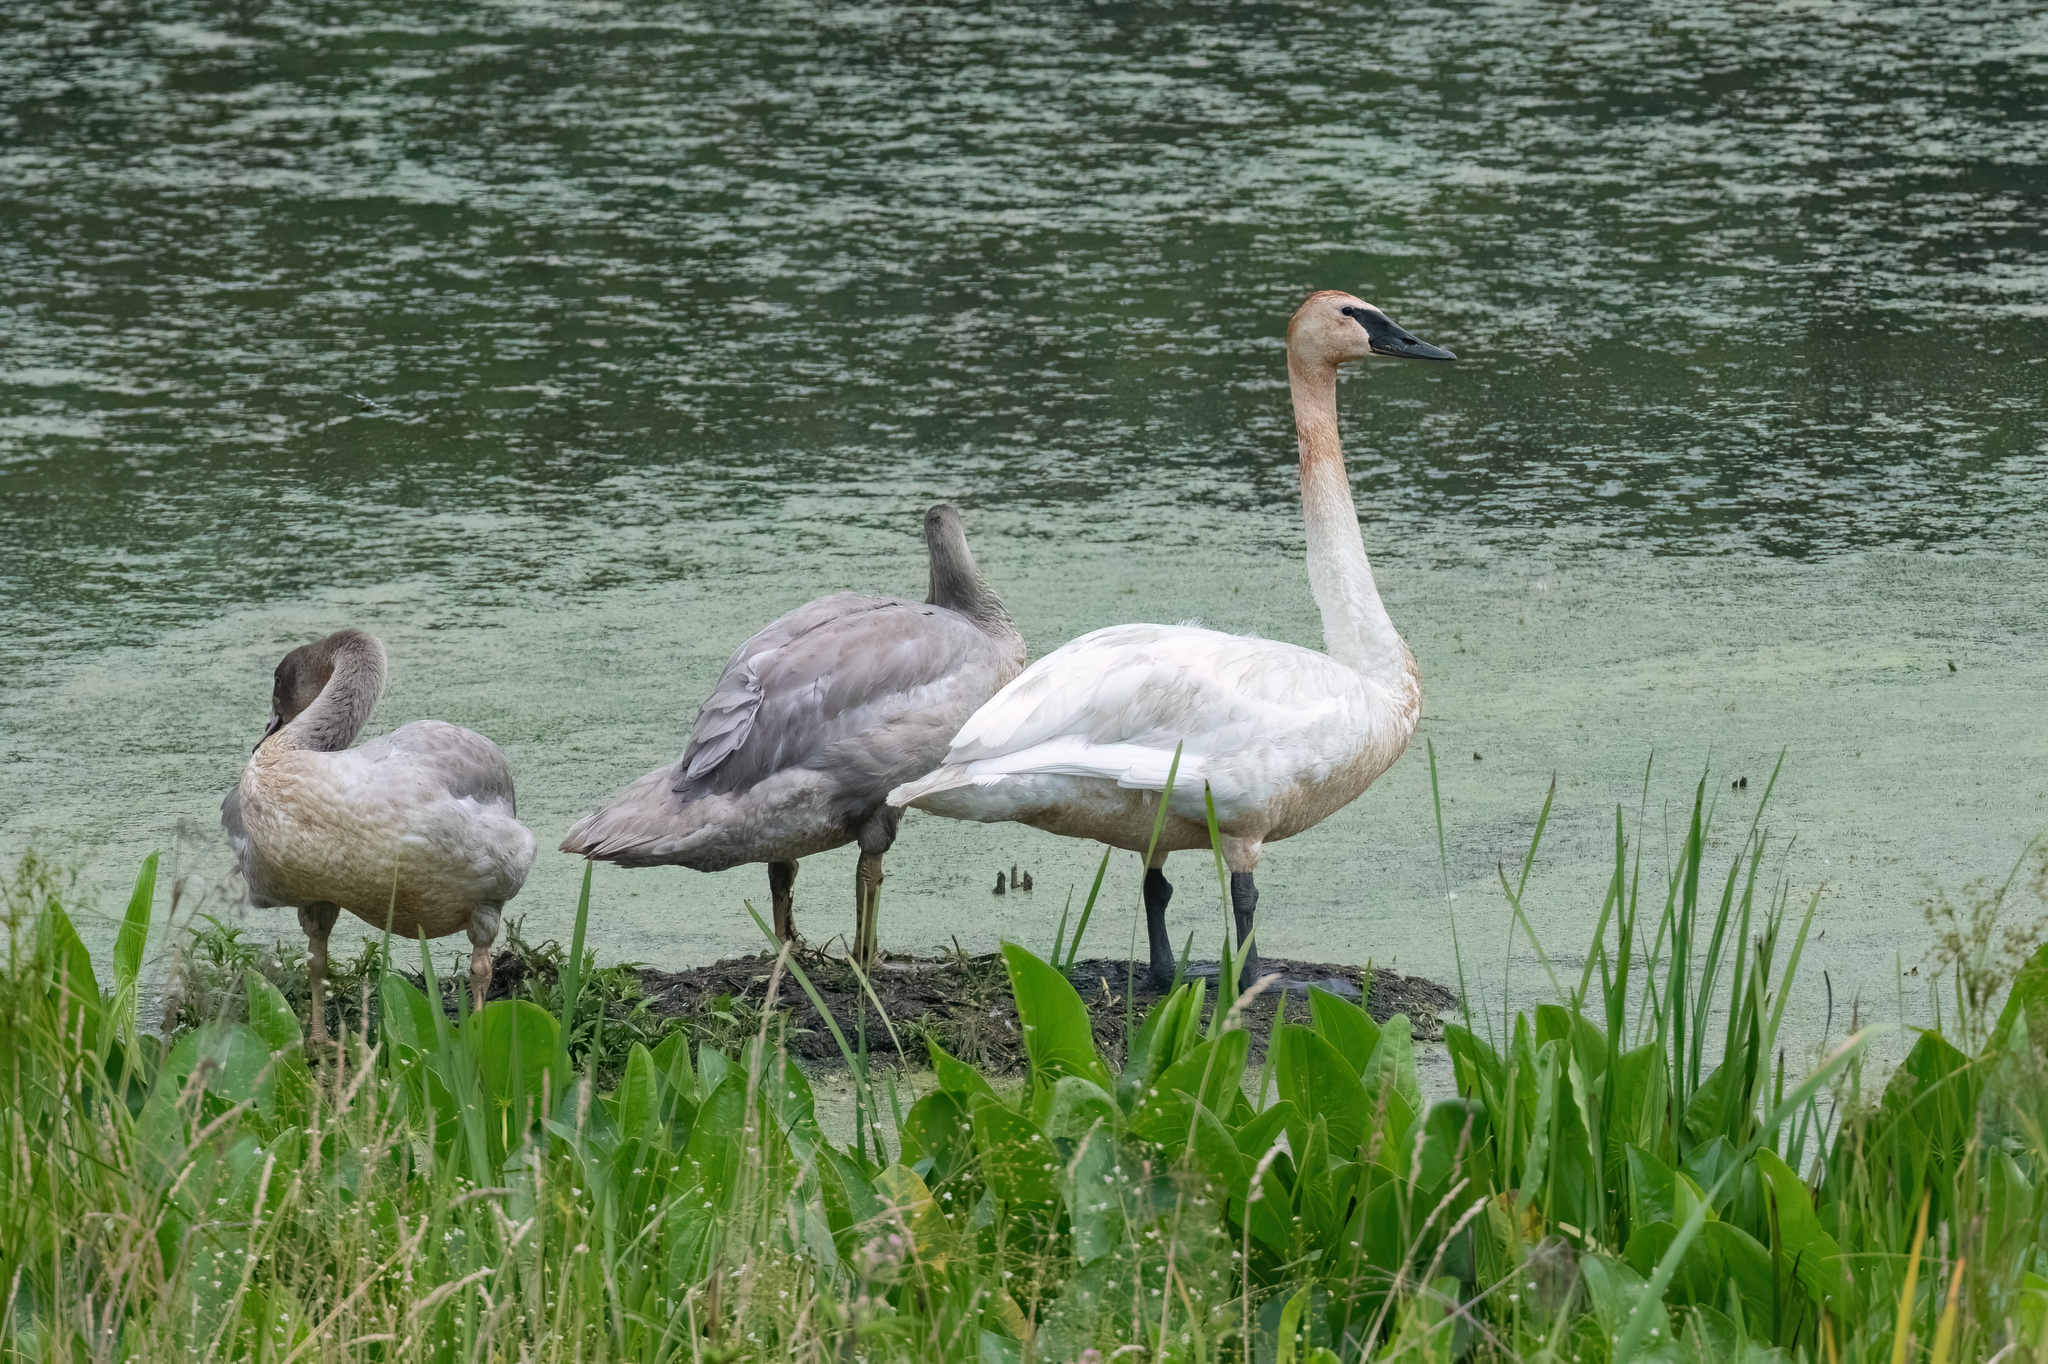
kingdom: Animalia
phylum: Chordata
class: Aves
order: Anseriformes
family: Anatidae
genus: Cygnus
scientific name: Cygnus buccinator
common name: Trumpeter swan
